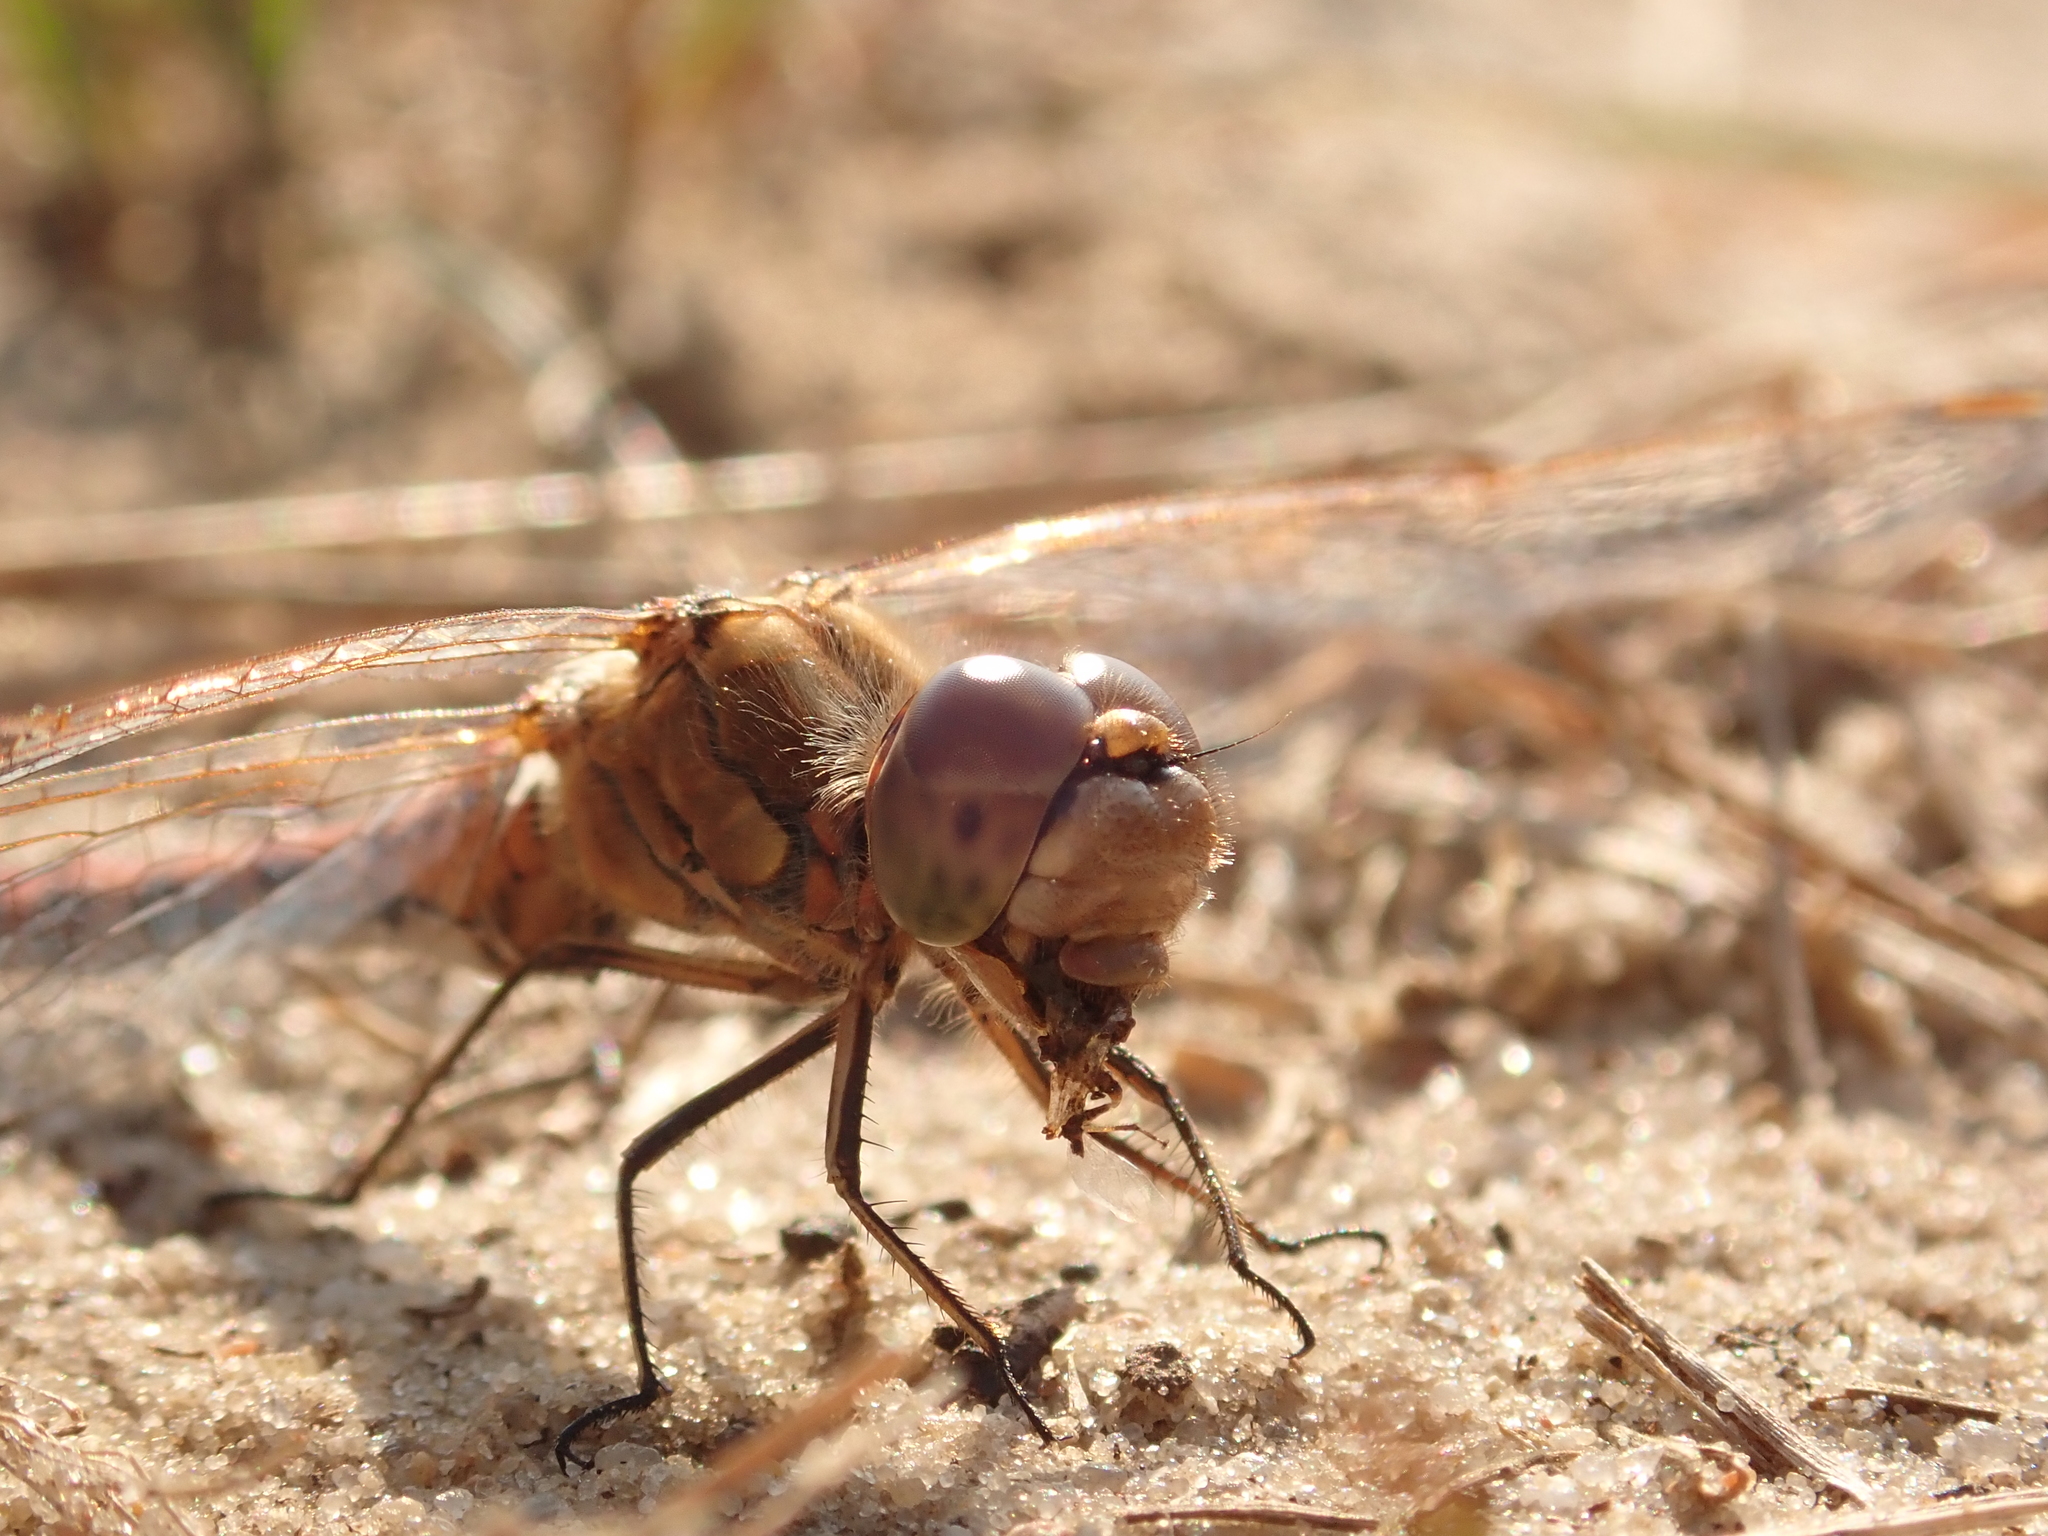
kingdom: Animalia
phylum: Arthropoda
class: Insecta
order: Odonata
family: Libellulidae
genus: Sympetrum
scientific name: Sympetrum vulgatum
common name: Vagrant darter
